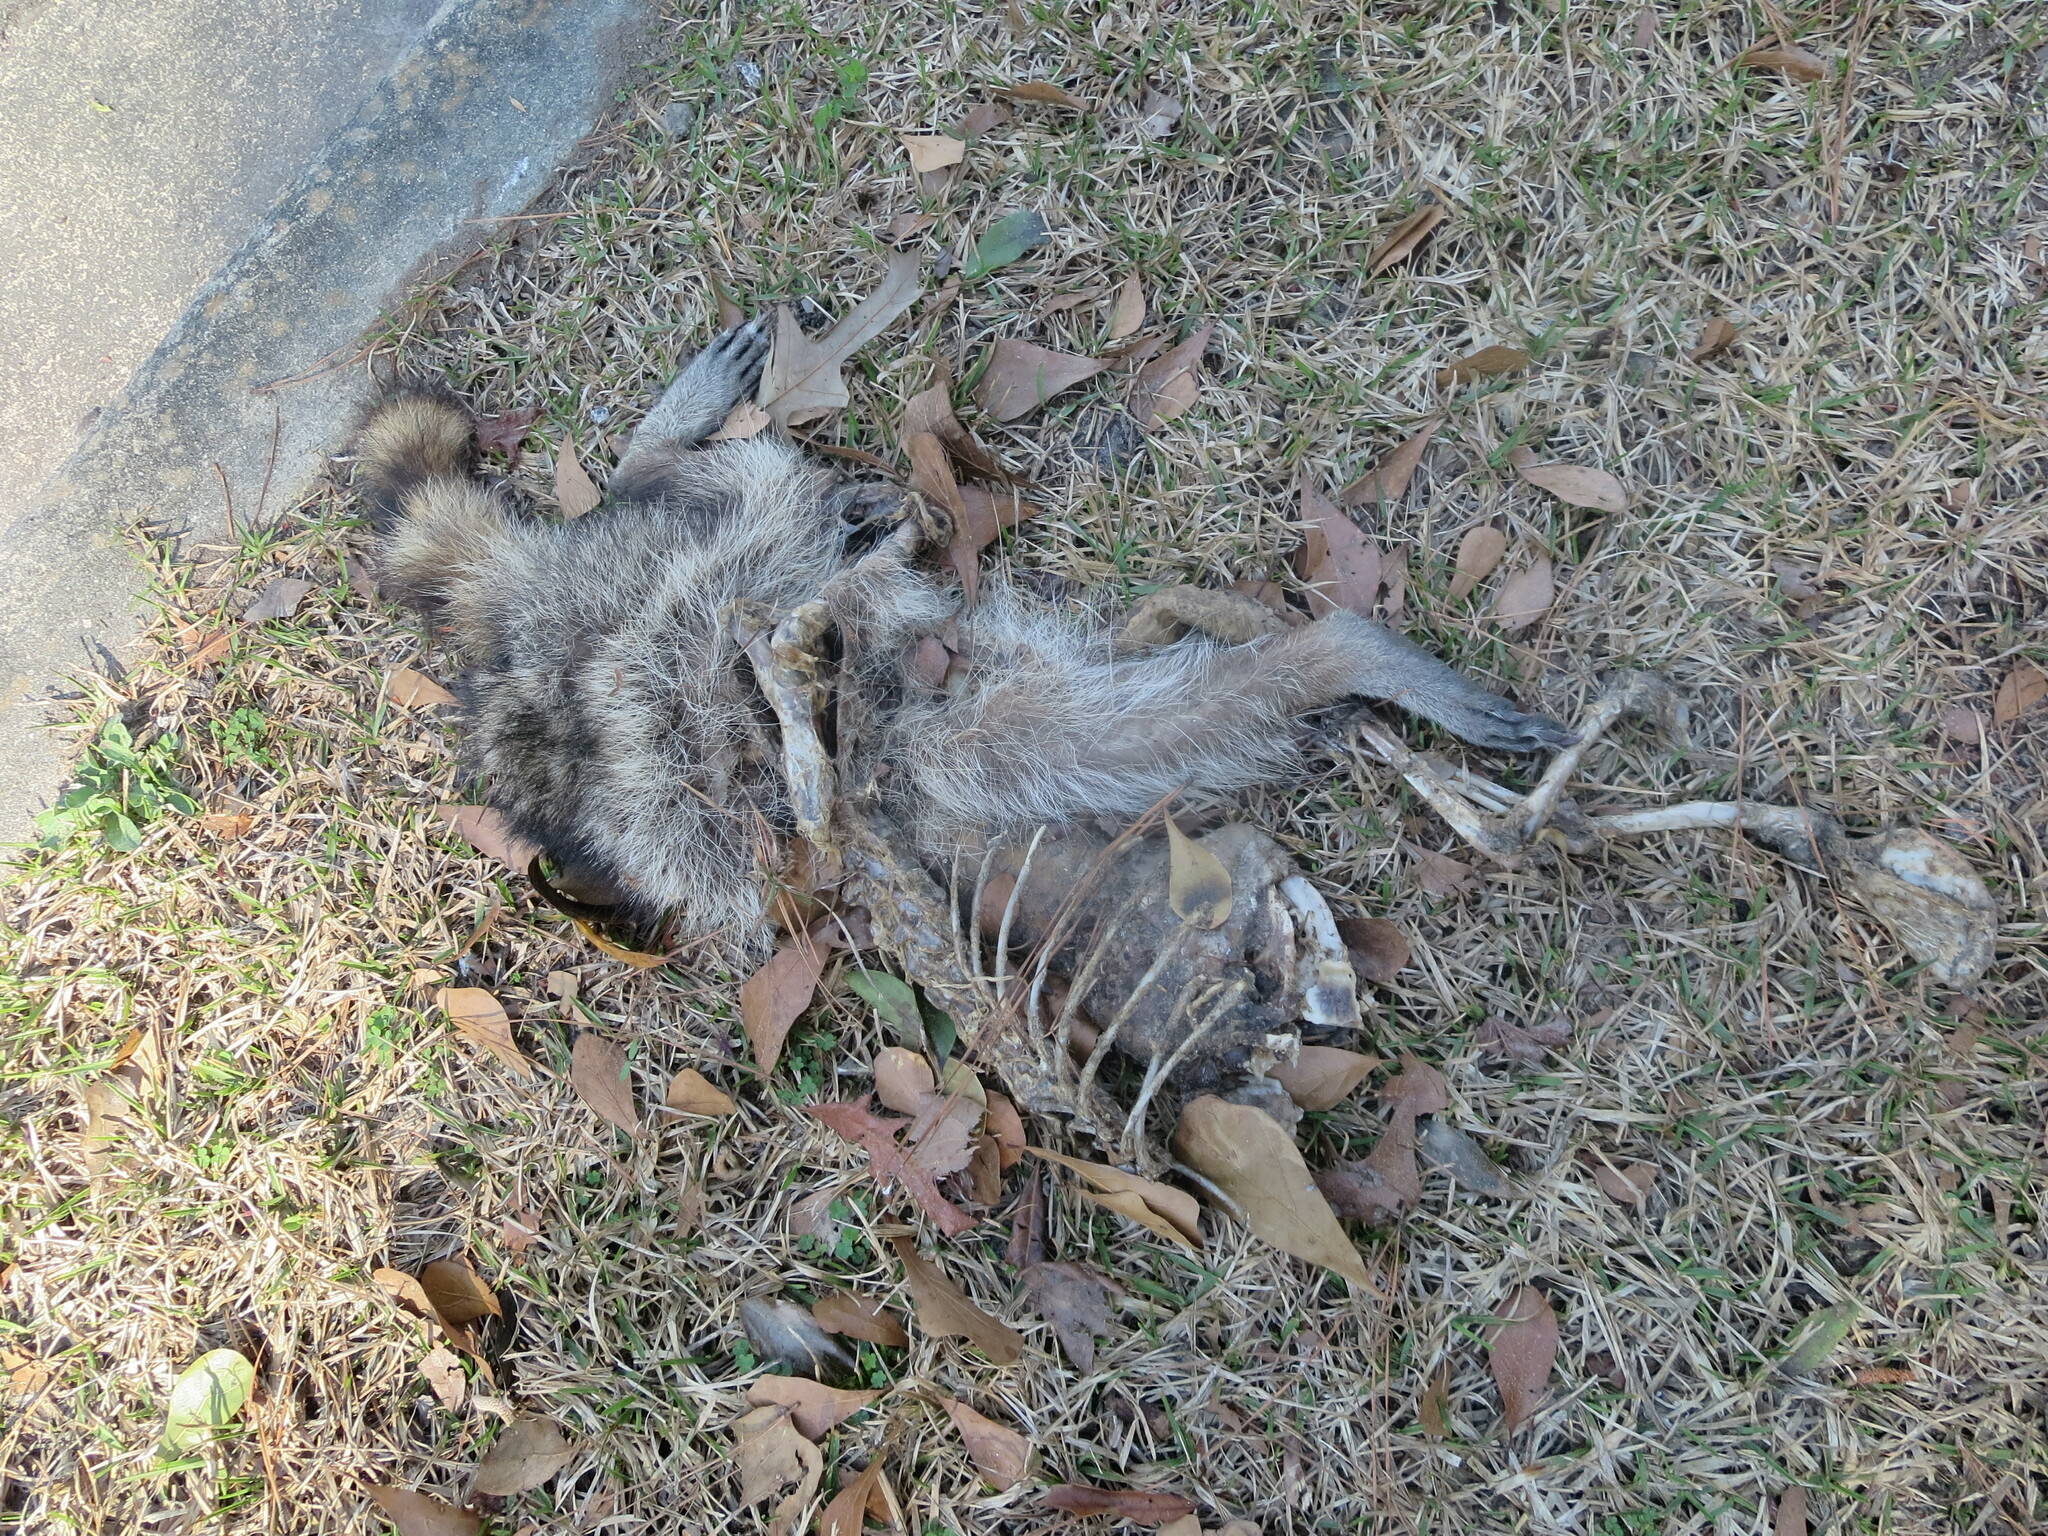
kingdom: Animalia
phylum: Chordata
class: Mammalia
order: Carnivora
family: Procyonidae
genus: Procyon
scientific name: Procyon lotor
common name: Raccoon
